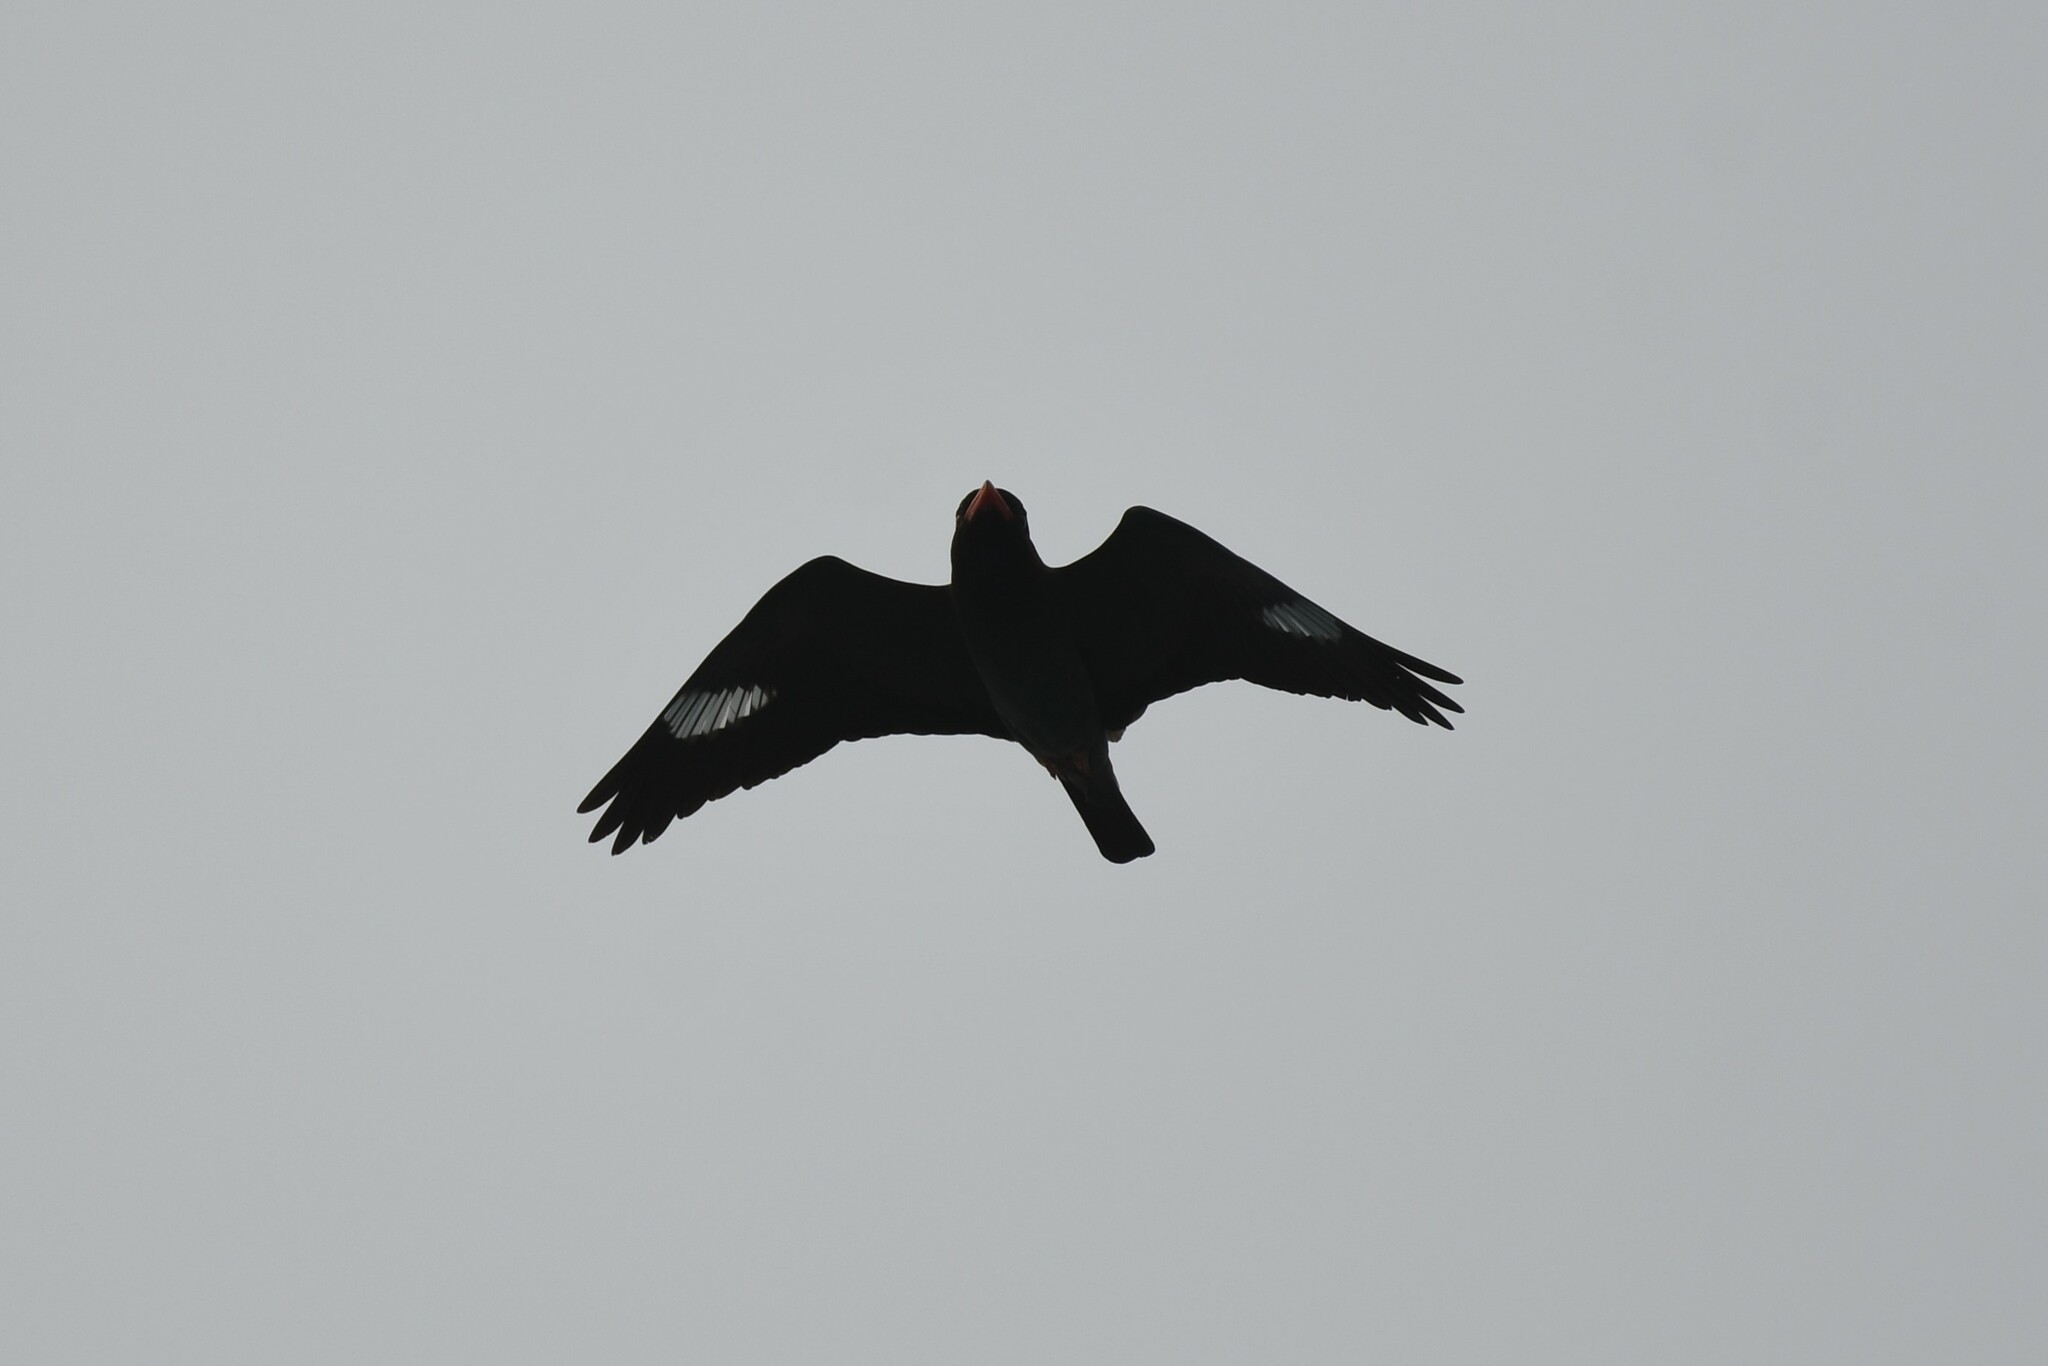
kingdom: Animalia
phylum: Chordata
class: Aves
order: Coraciiformes
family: Coraciidae
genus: Eurystomus
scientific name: Eurystomus orientalis
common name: Oriental dollarbird
